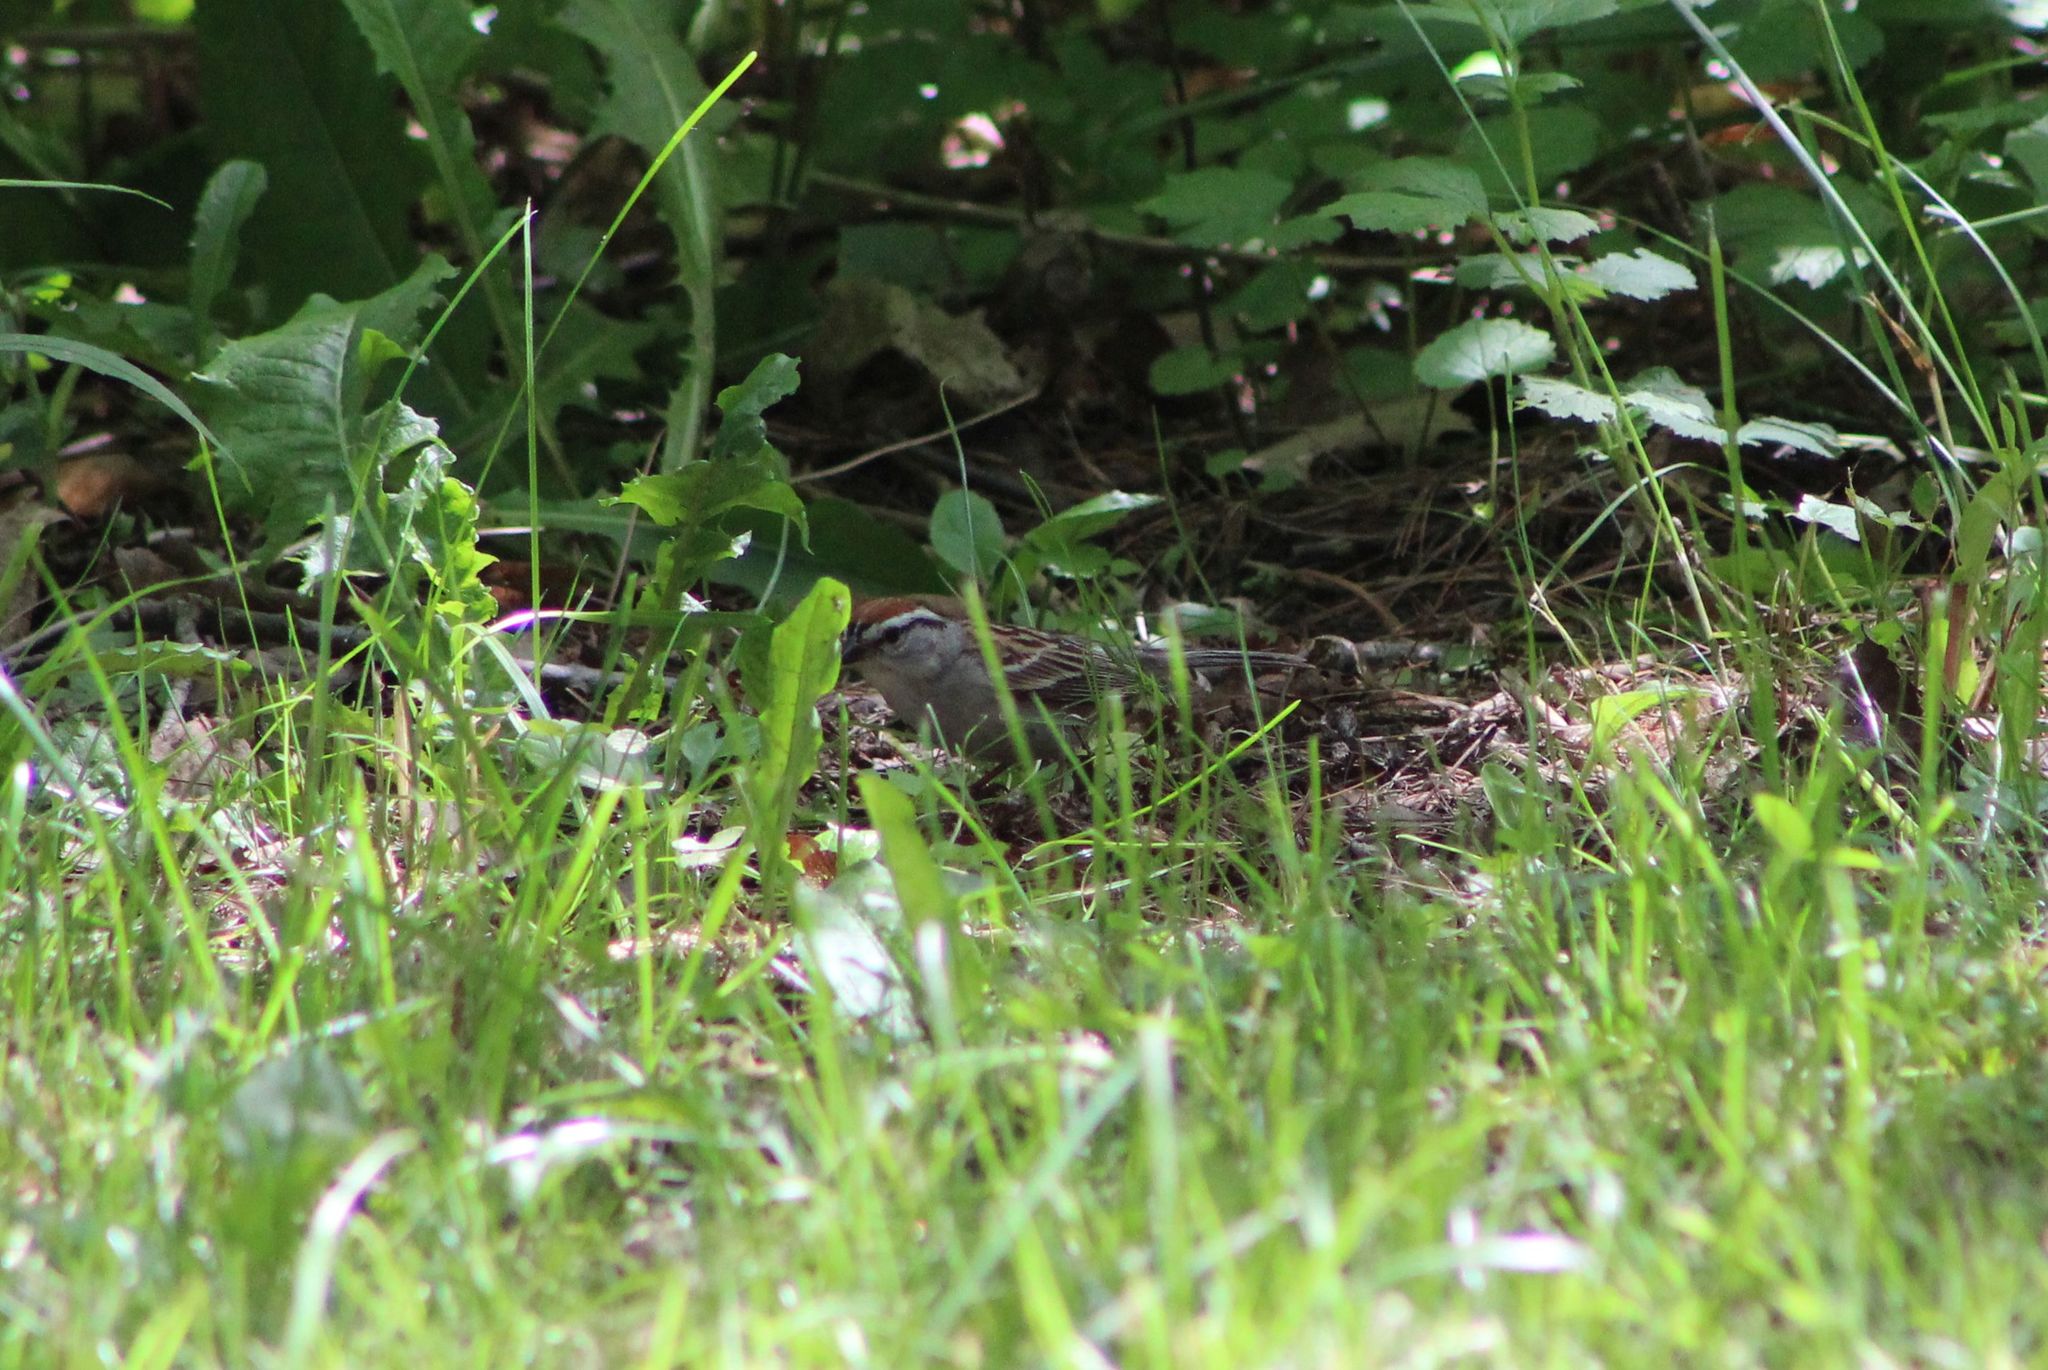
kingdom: Animalia
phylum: Chordata
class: Aves
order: Passeriformes
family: Passerellidae
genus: Spizella
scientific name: Spizella passerina
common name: Chipping sparrow
